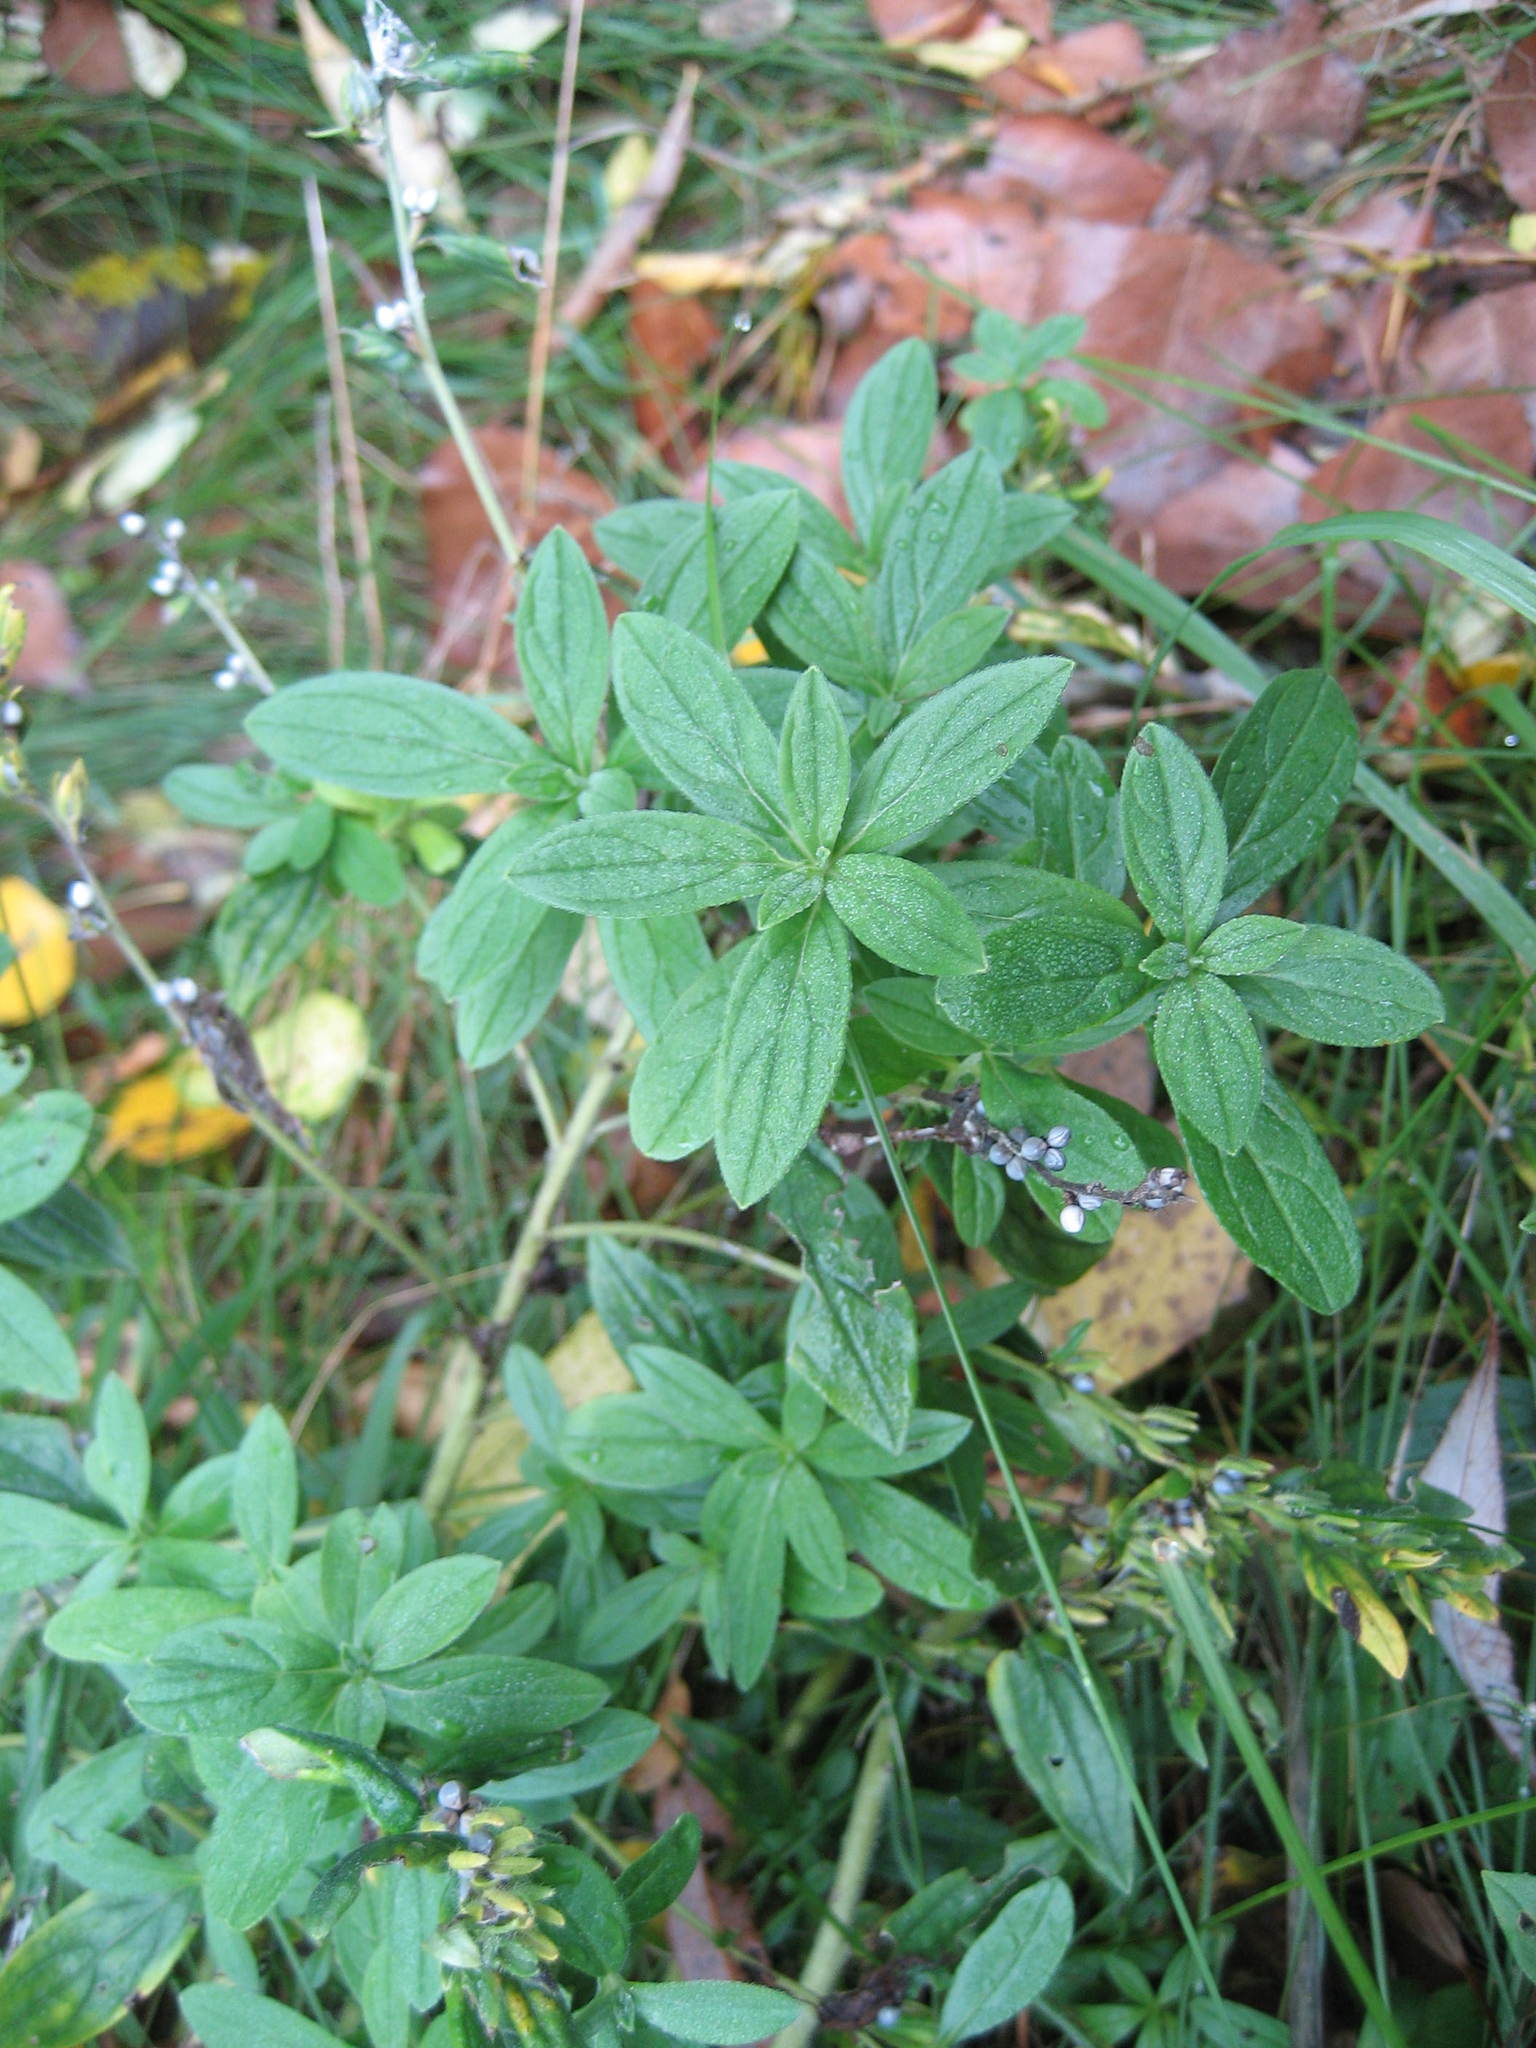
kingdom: Plantae
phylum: Tracheophyta
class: Magnoliopsida
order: Boraginales
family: Boraginaceae
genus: Lithospermum
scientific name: Lithospermum officinale
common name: Common gromwell
